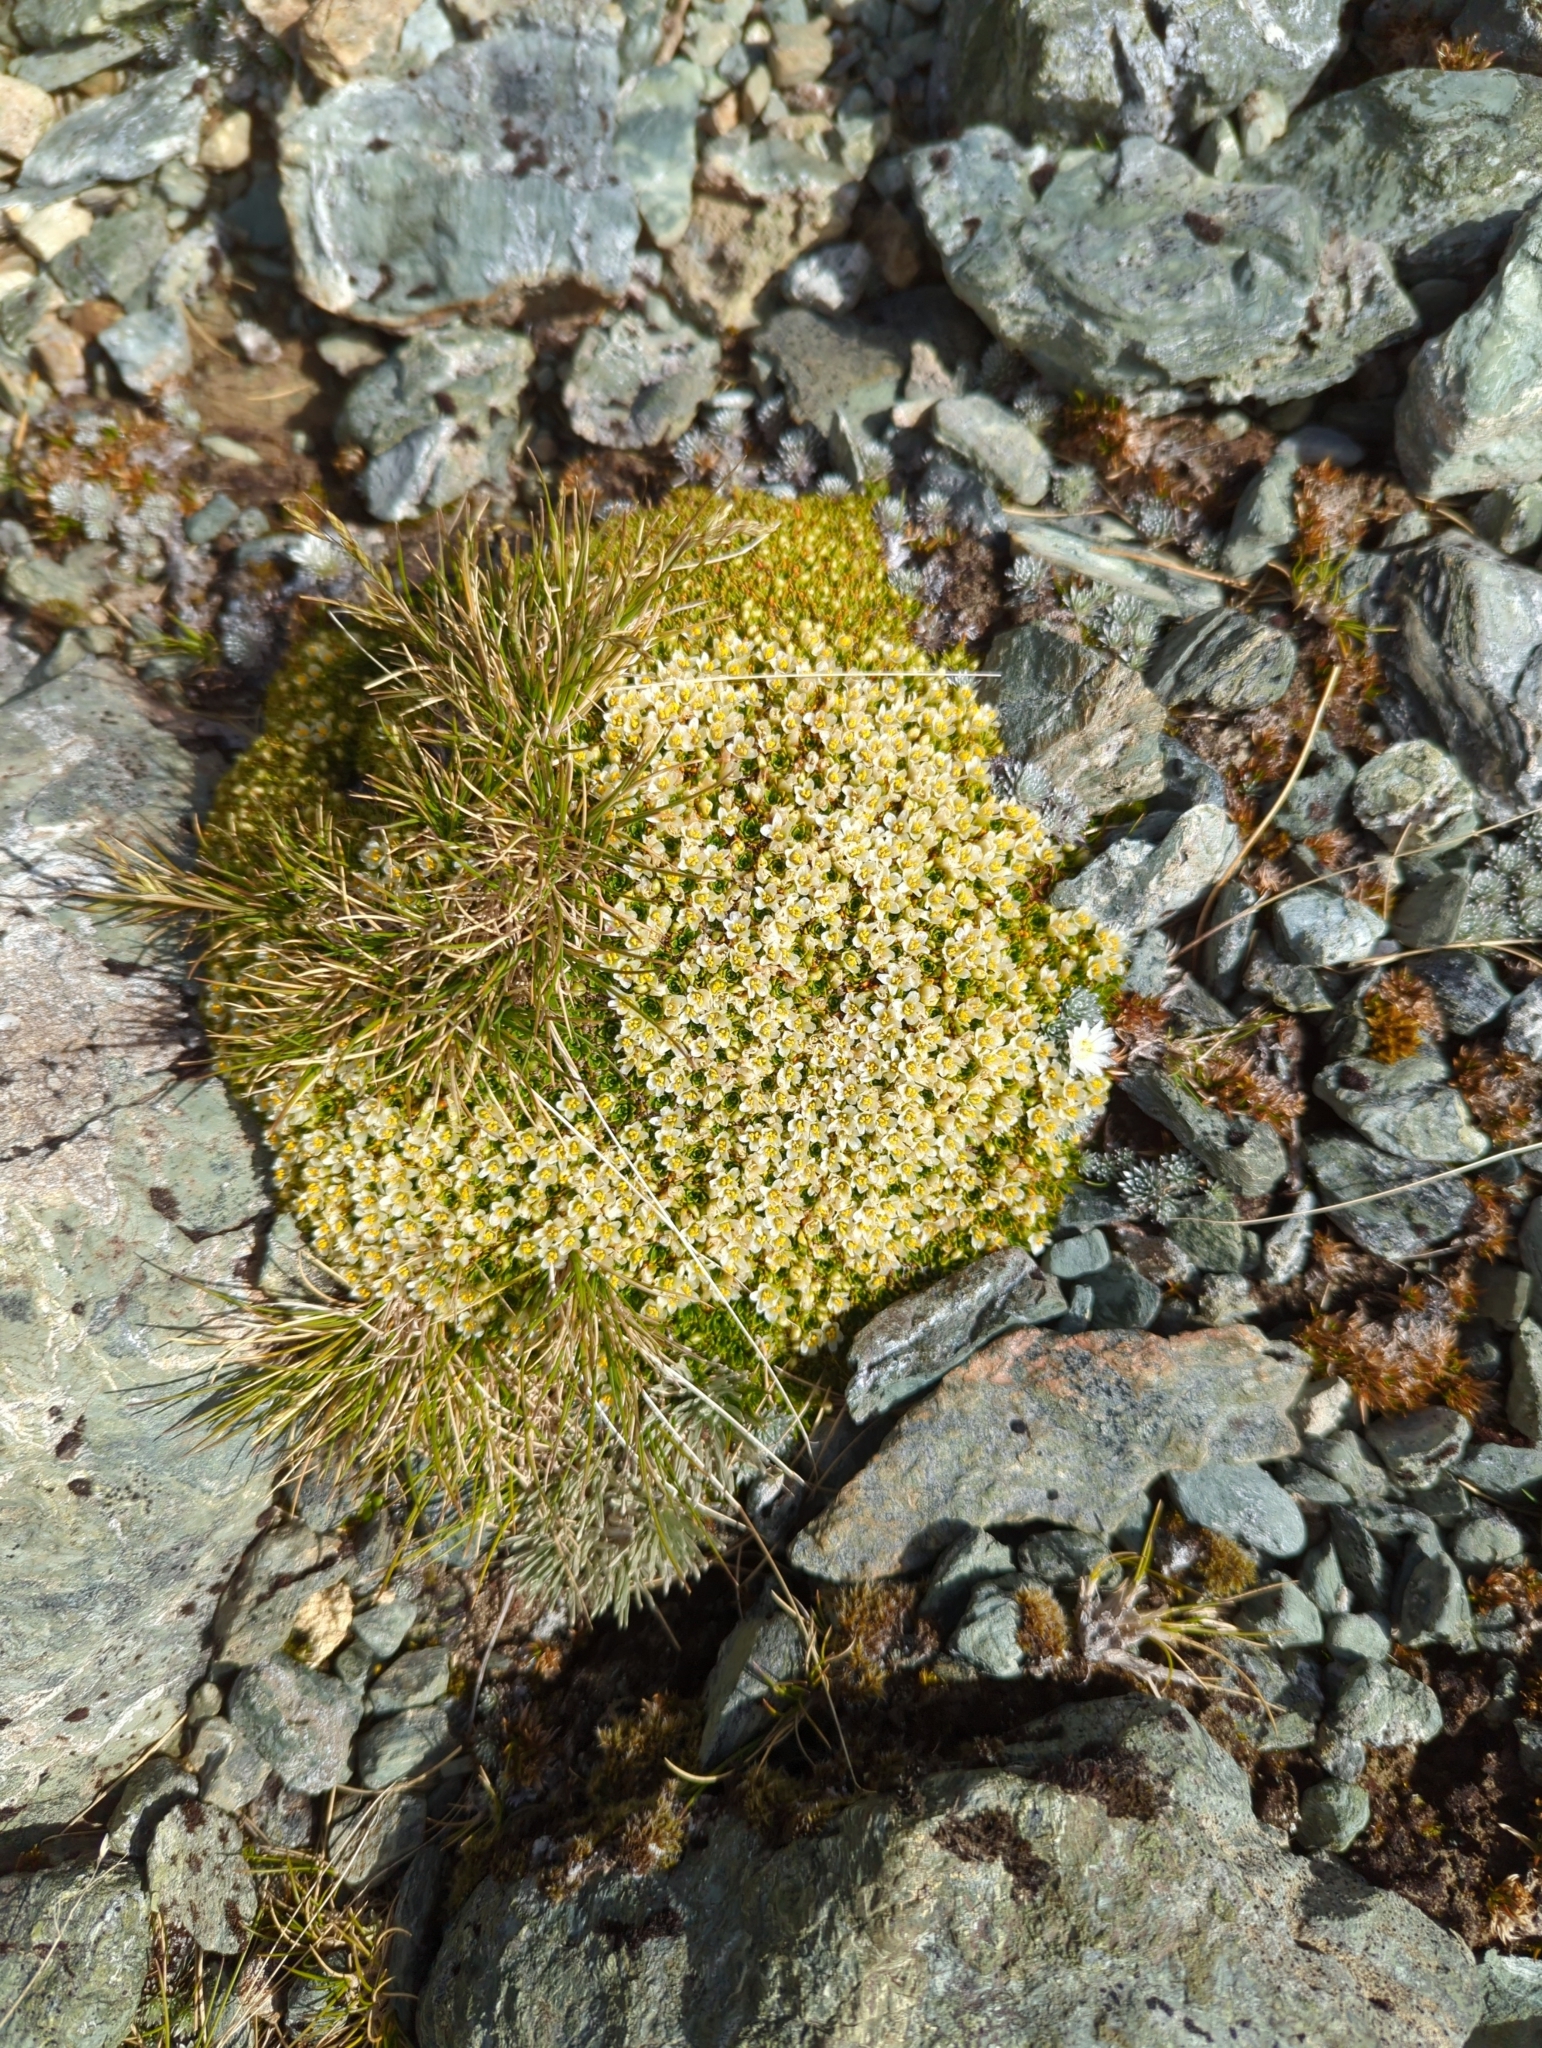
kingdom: Plantae
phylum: Tracheophyta
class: Magnoliopsida
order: Caryophyllales
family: Montiaceae
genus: Hectorella
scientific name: Hectorella caespitosa
